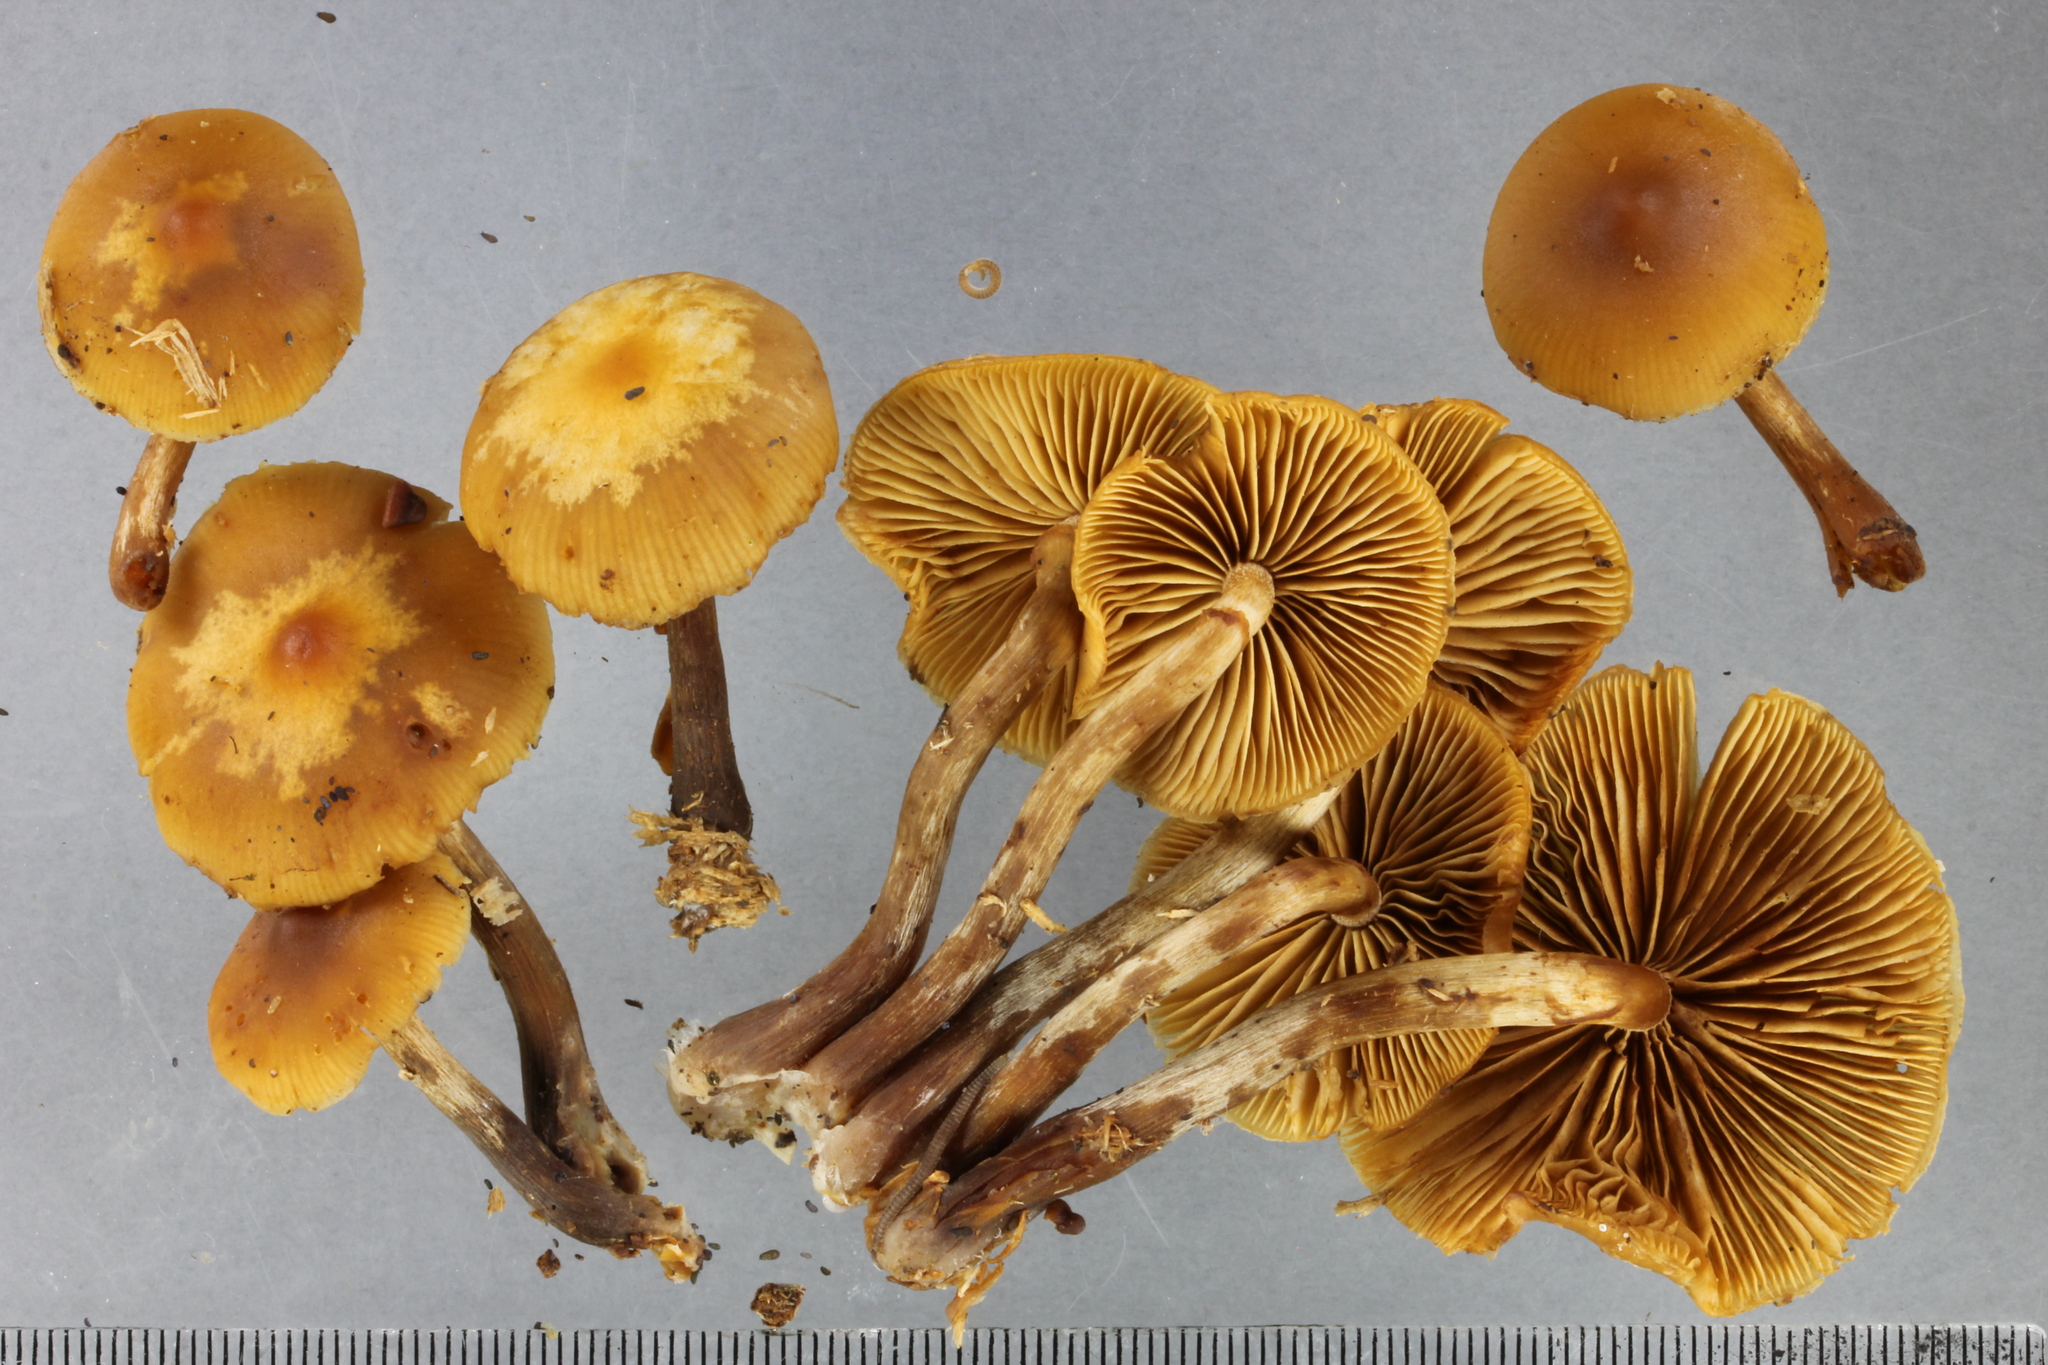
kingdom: Fungi
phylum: Basidiomycota
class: Agaricomycetes
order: Agaricales
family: Hymenogastraceae
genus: Galerina
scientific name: Galerina patagonica
